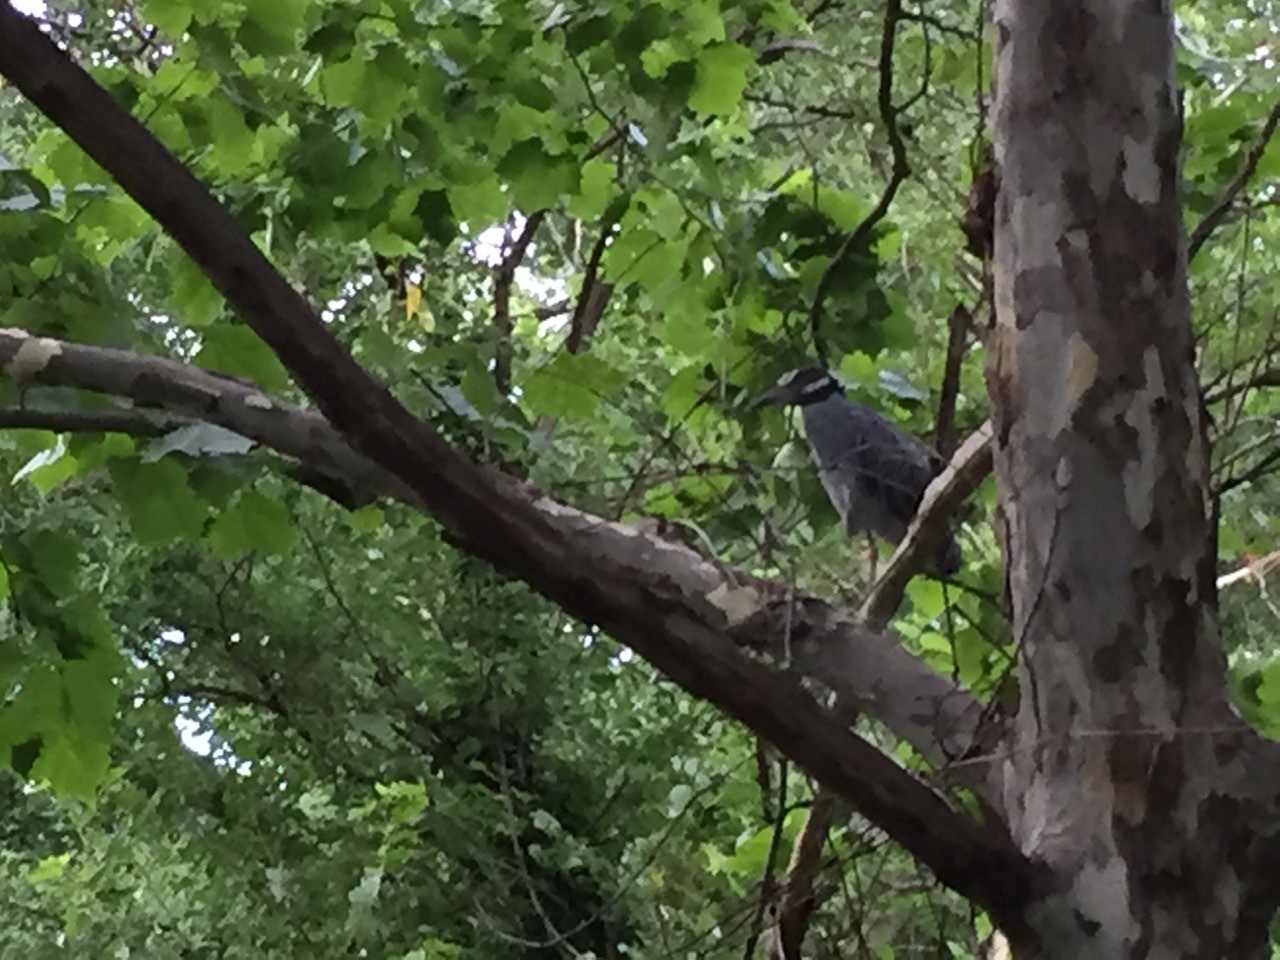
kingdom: Animalia
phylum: Chordata
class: Aves
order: Pelecaniformes
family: Ardeidae
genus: Nyctanassa
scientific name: Nyctanassa violacea
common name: Yellow-crowned night heron
